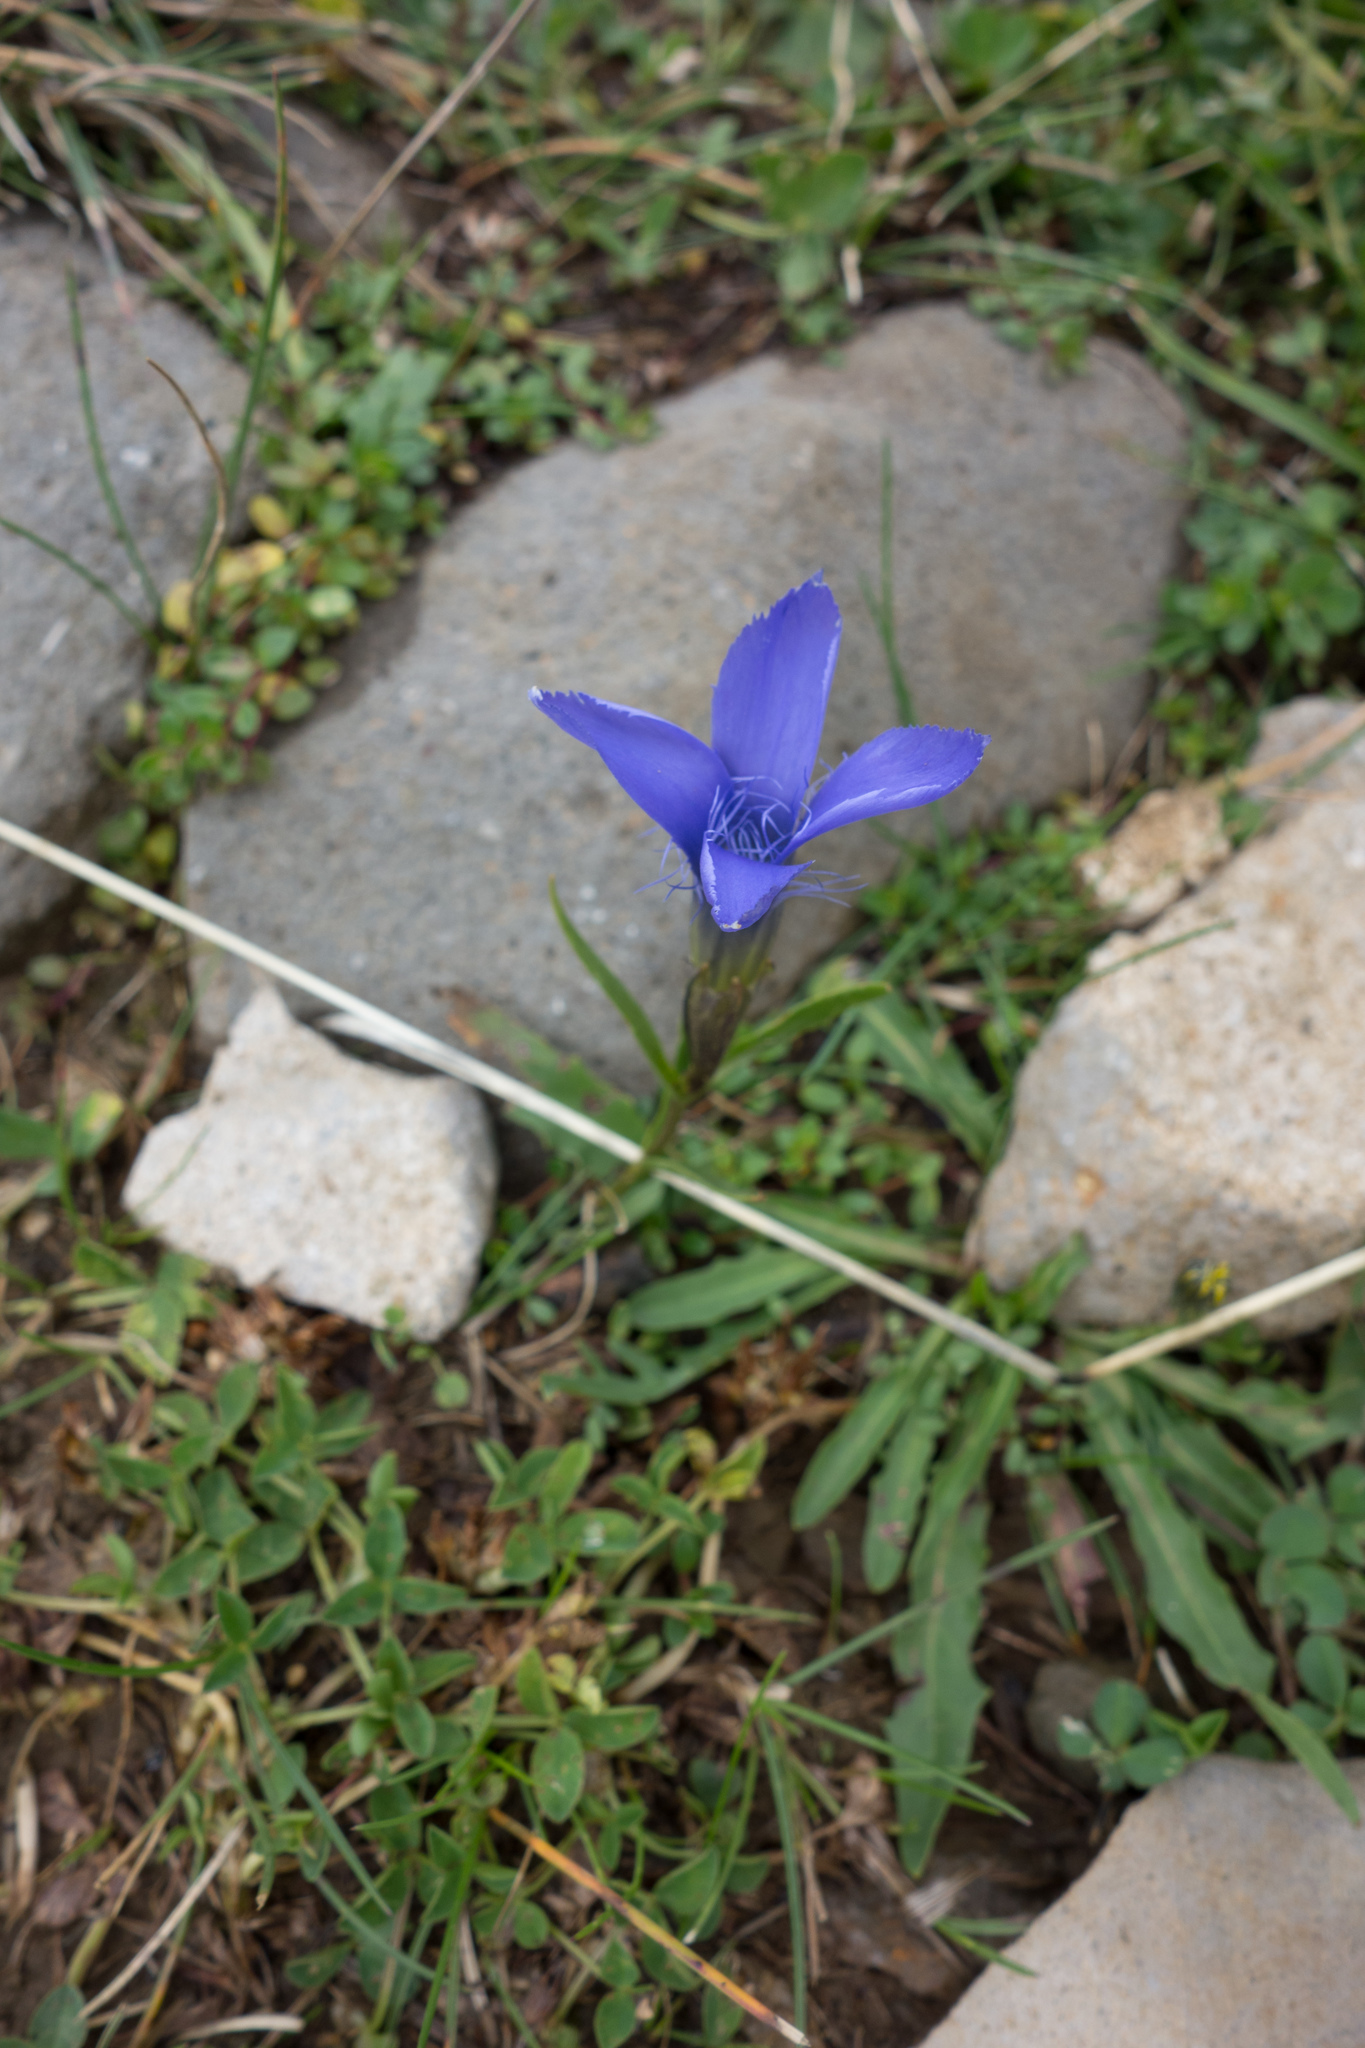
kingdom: Plantae
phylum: Tracheophyta
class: Magnoliopsida
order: Gentianales
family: Gentianaceae
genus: Gentianopsis
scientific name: Gentianopsis ciliata
